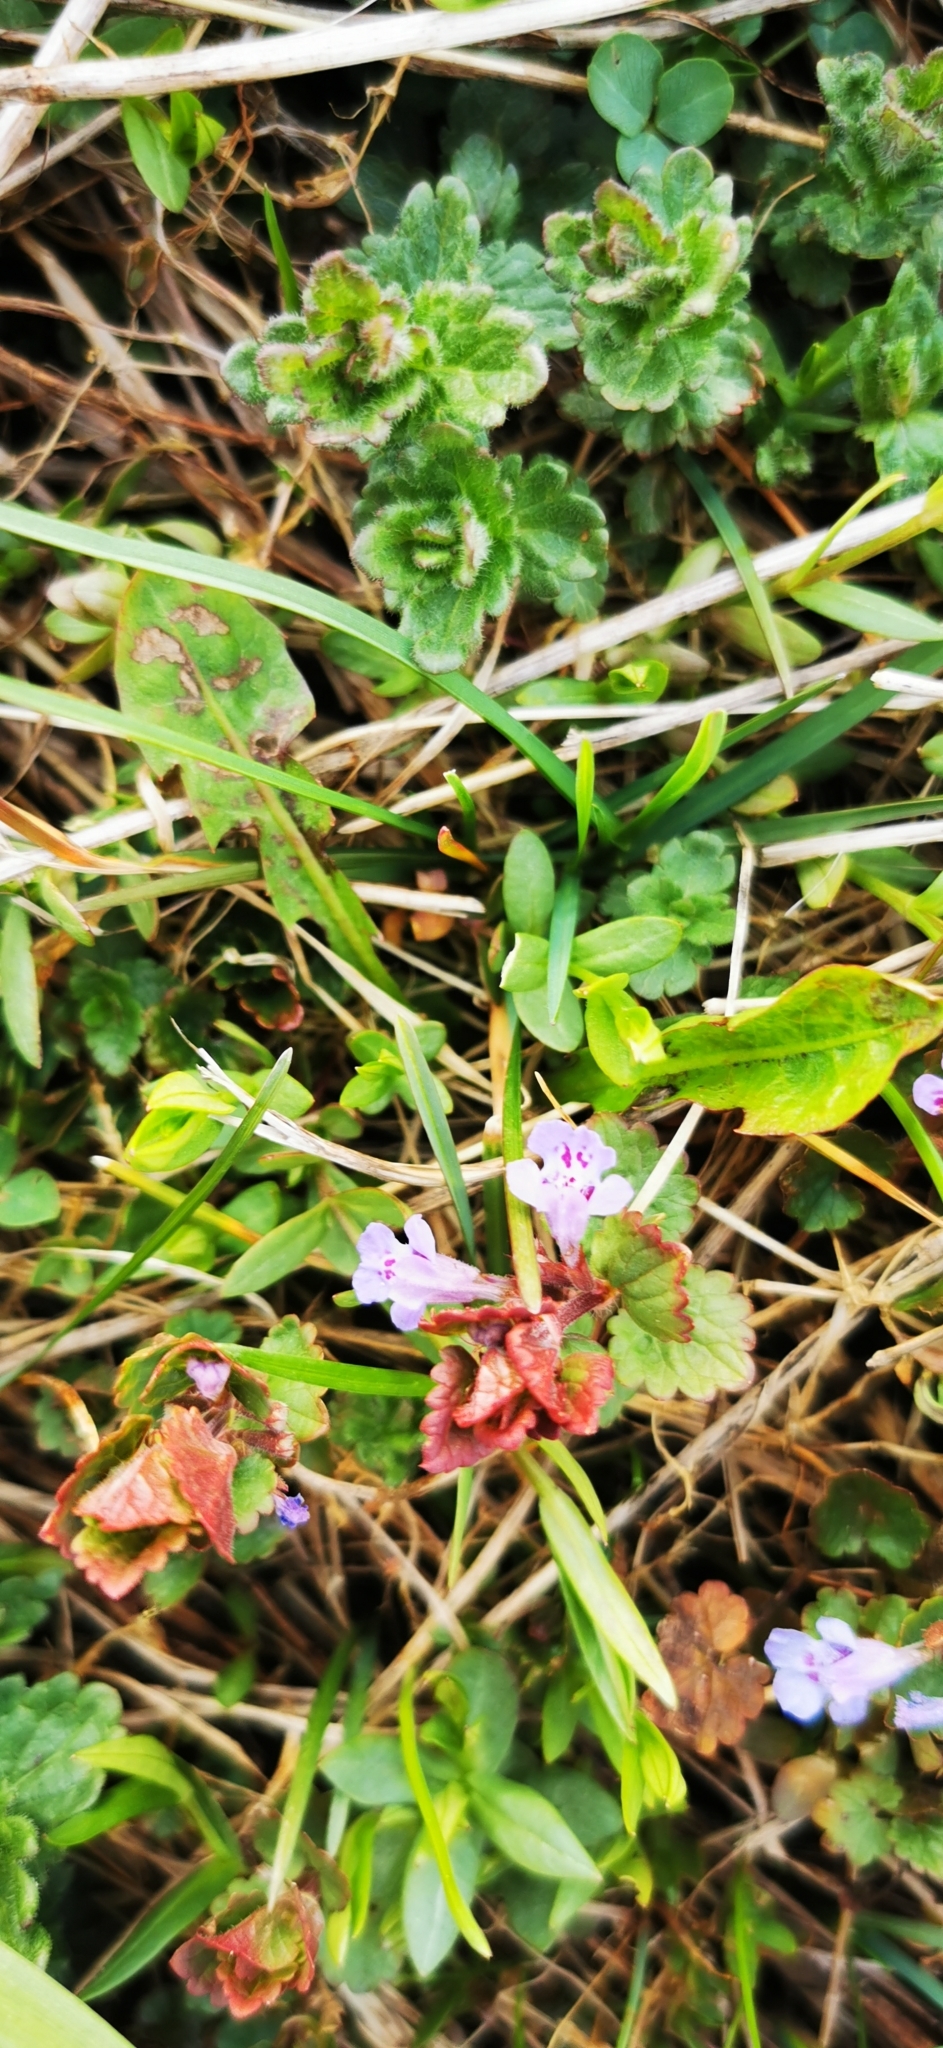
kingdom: Plantae
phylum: Tracheophyta
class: Magnoliopsida
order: Lamiales
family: Lamiaceae
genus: Glechoma
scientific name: Glechoma hederacea
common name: Ground ivy
